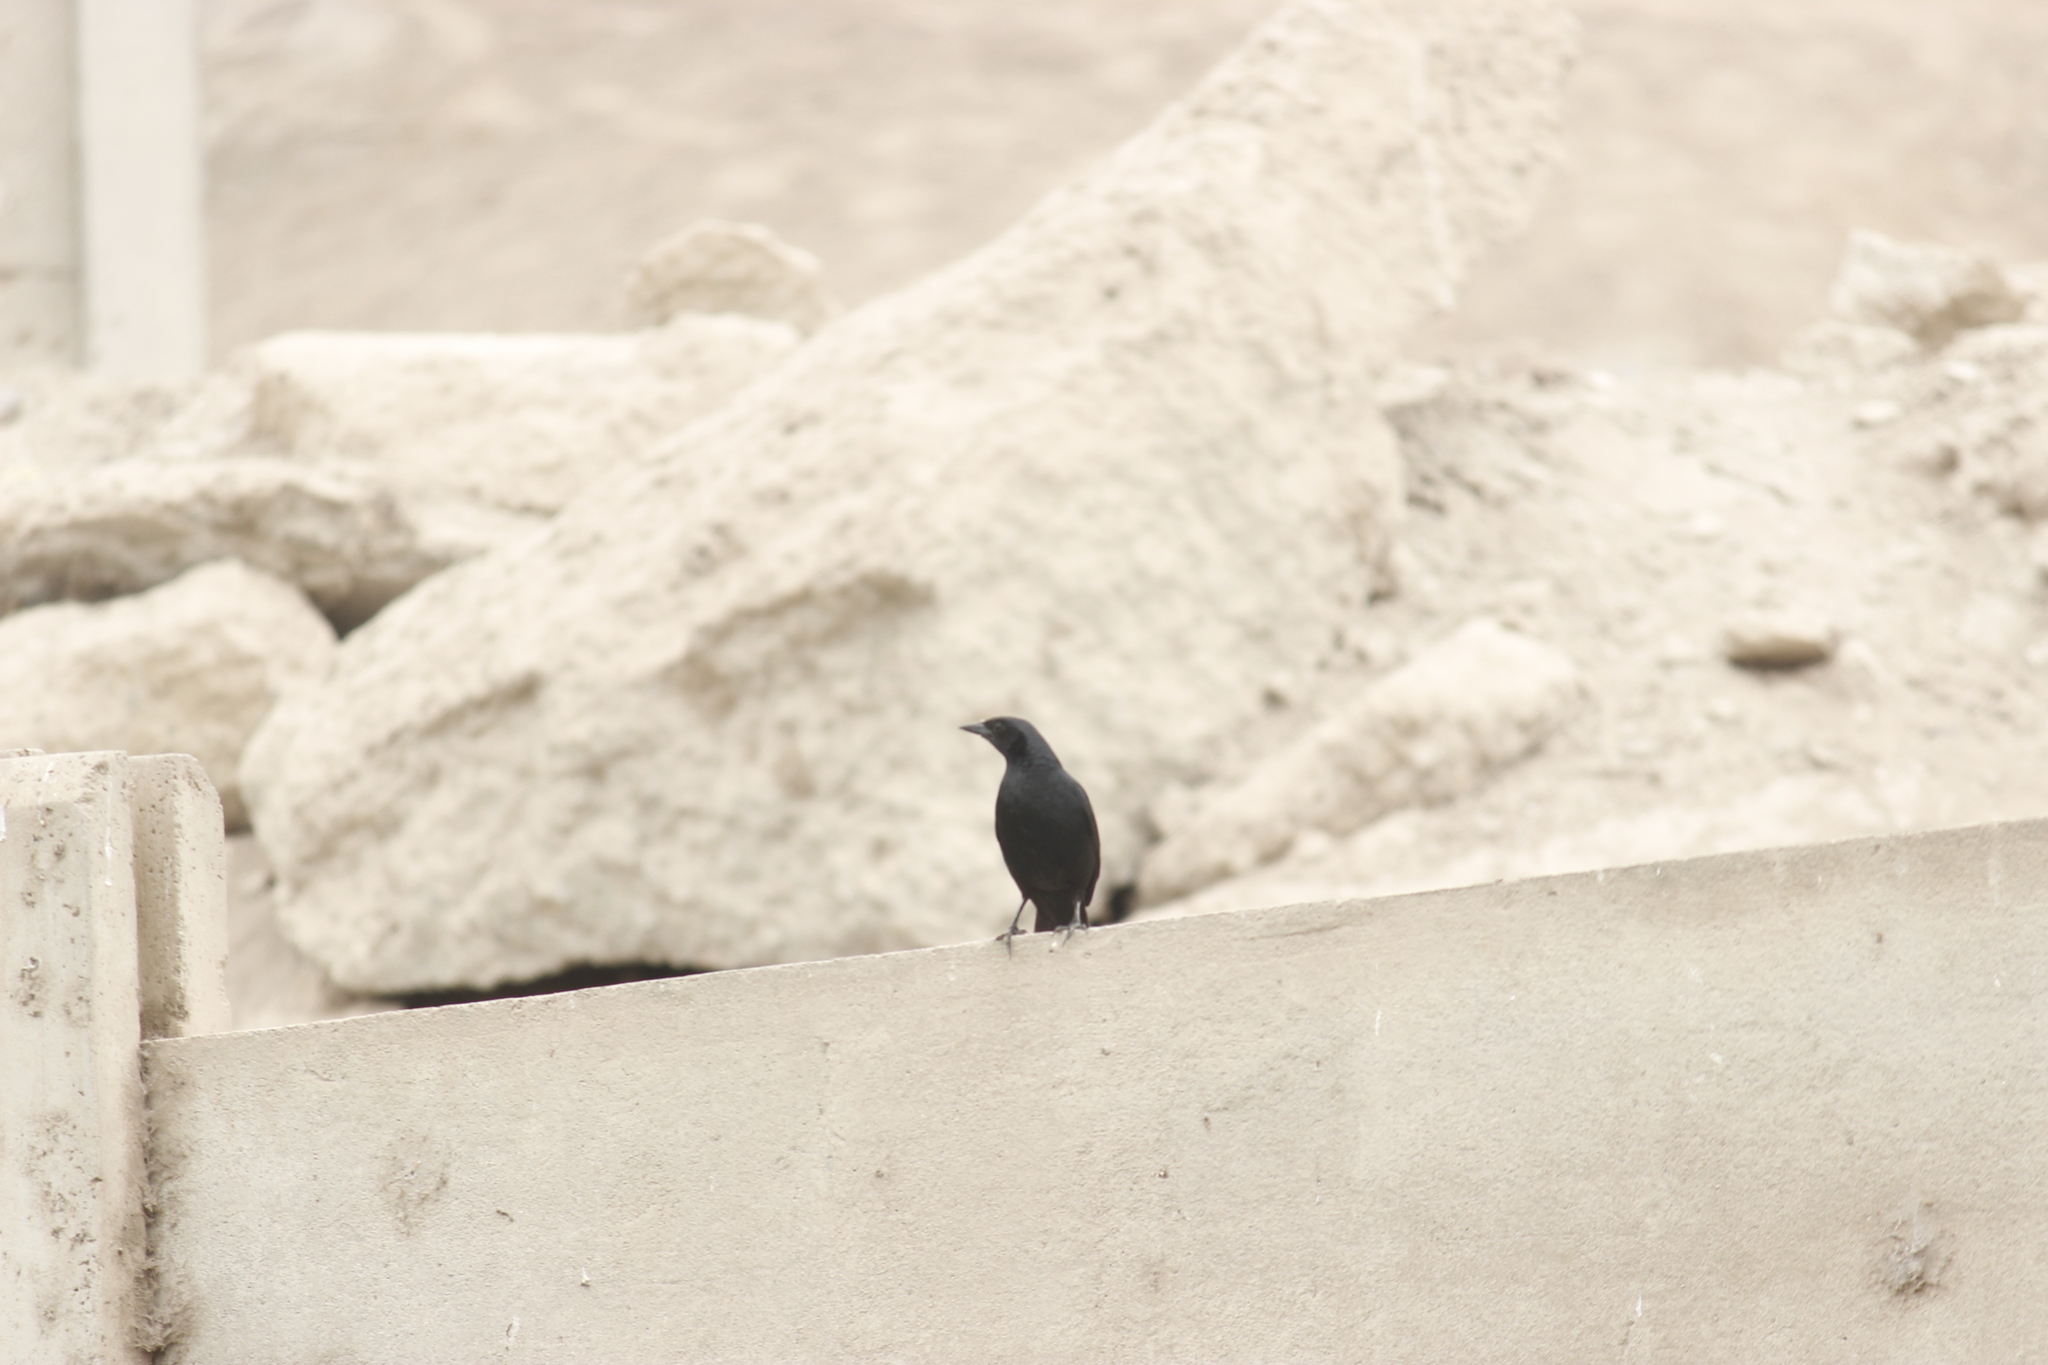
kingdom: Animalia
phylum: Chordata
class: Aves
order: Passeriformes
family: Icteridae
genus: Dives
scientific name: Dives warczewiczi
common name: Scrub blackbird
